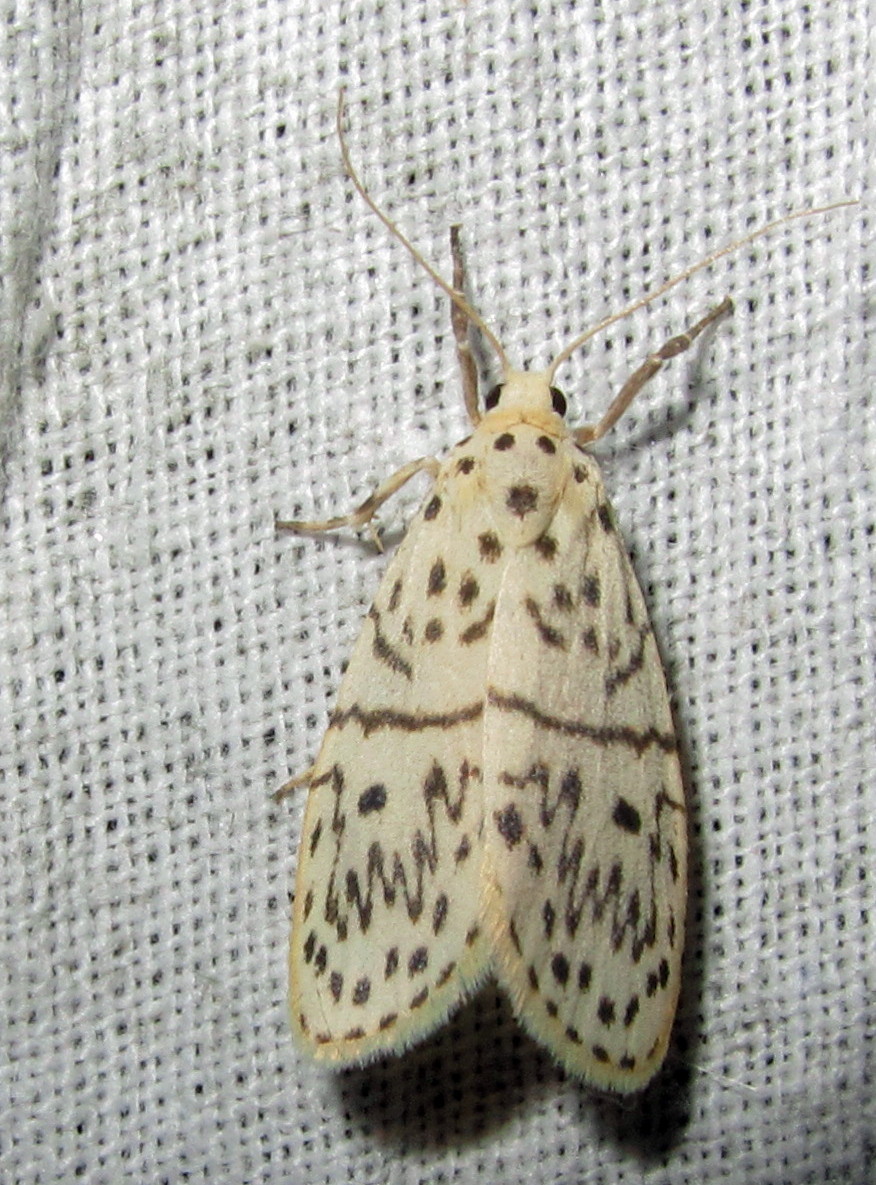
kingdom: Animalia
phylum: Arthropoda
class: Insecta
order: Lepidoptera
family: Erebidae
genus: Miltochrista
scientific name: Miltochrista undulosa
